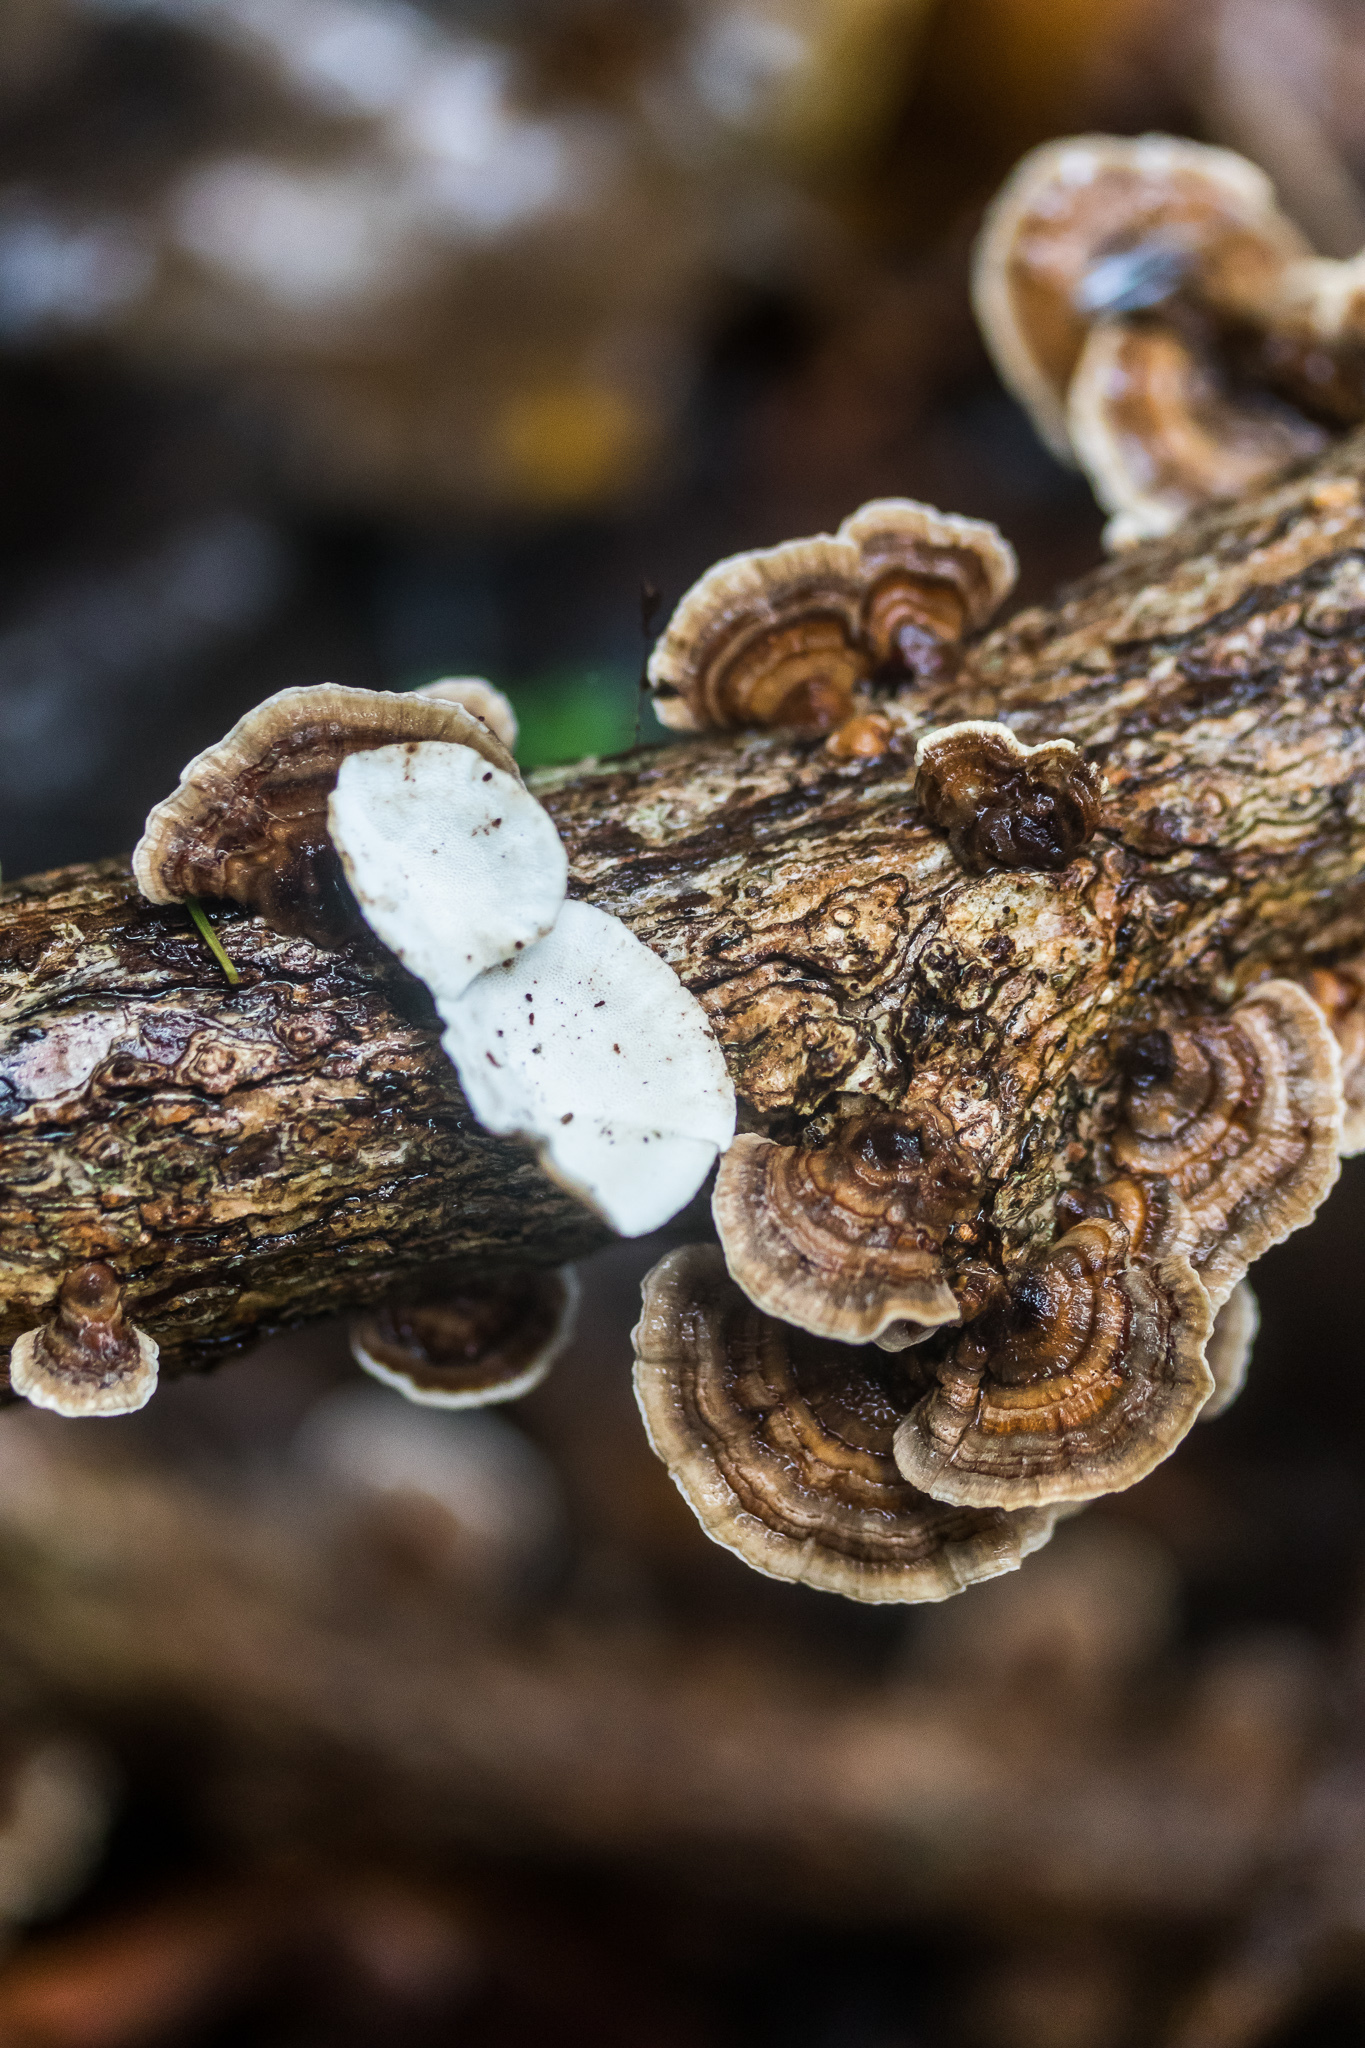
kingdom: Fungi
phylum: Basidiomycota
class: Agaricomycetes
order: Polyporales
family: Polyporaceae
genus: Trametes
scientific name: Trametes versicolor
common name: Turkeytail
